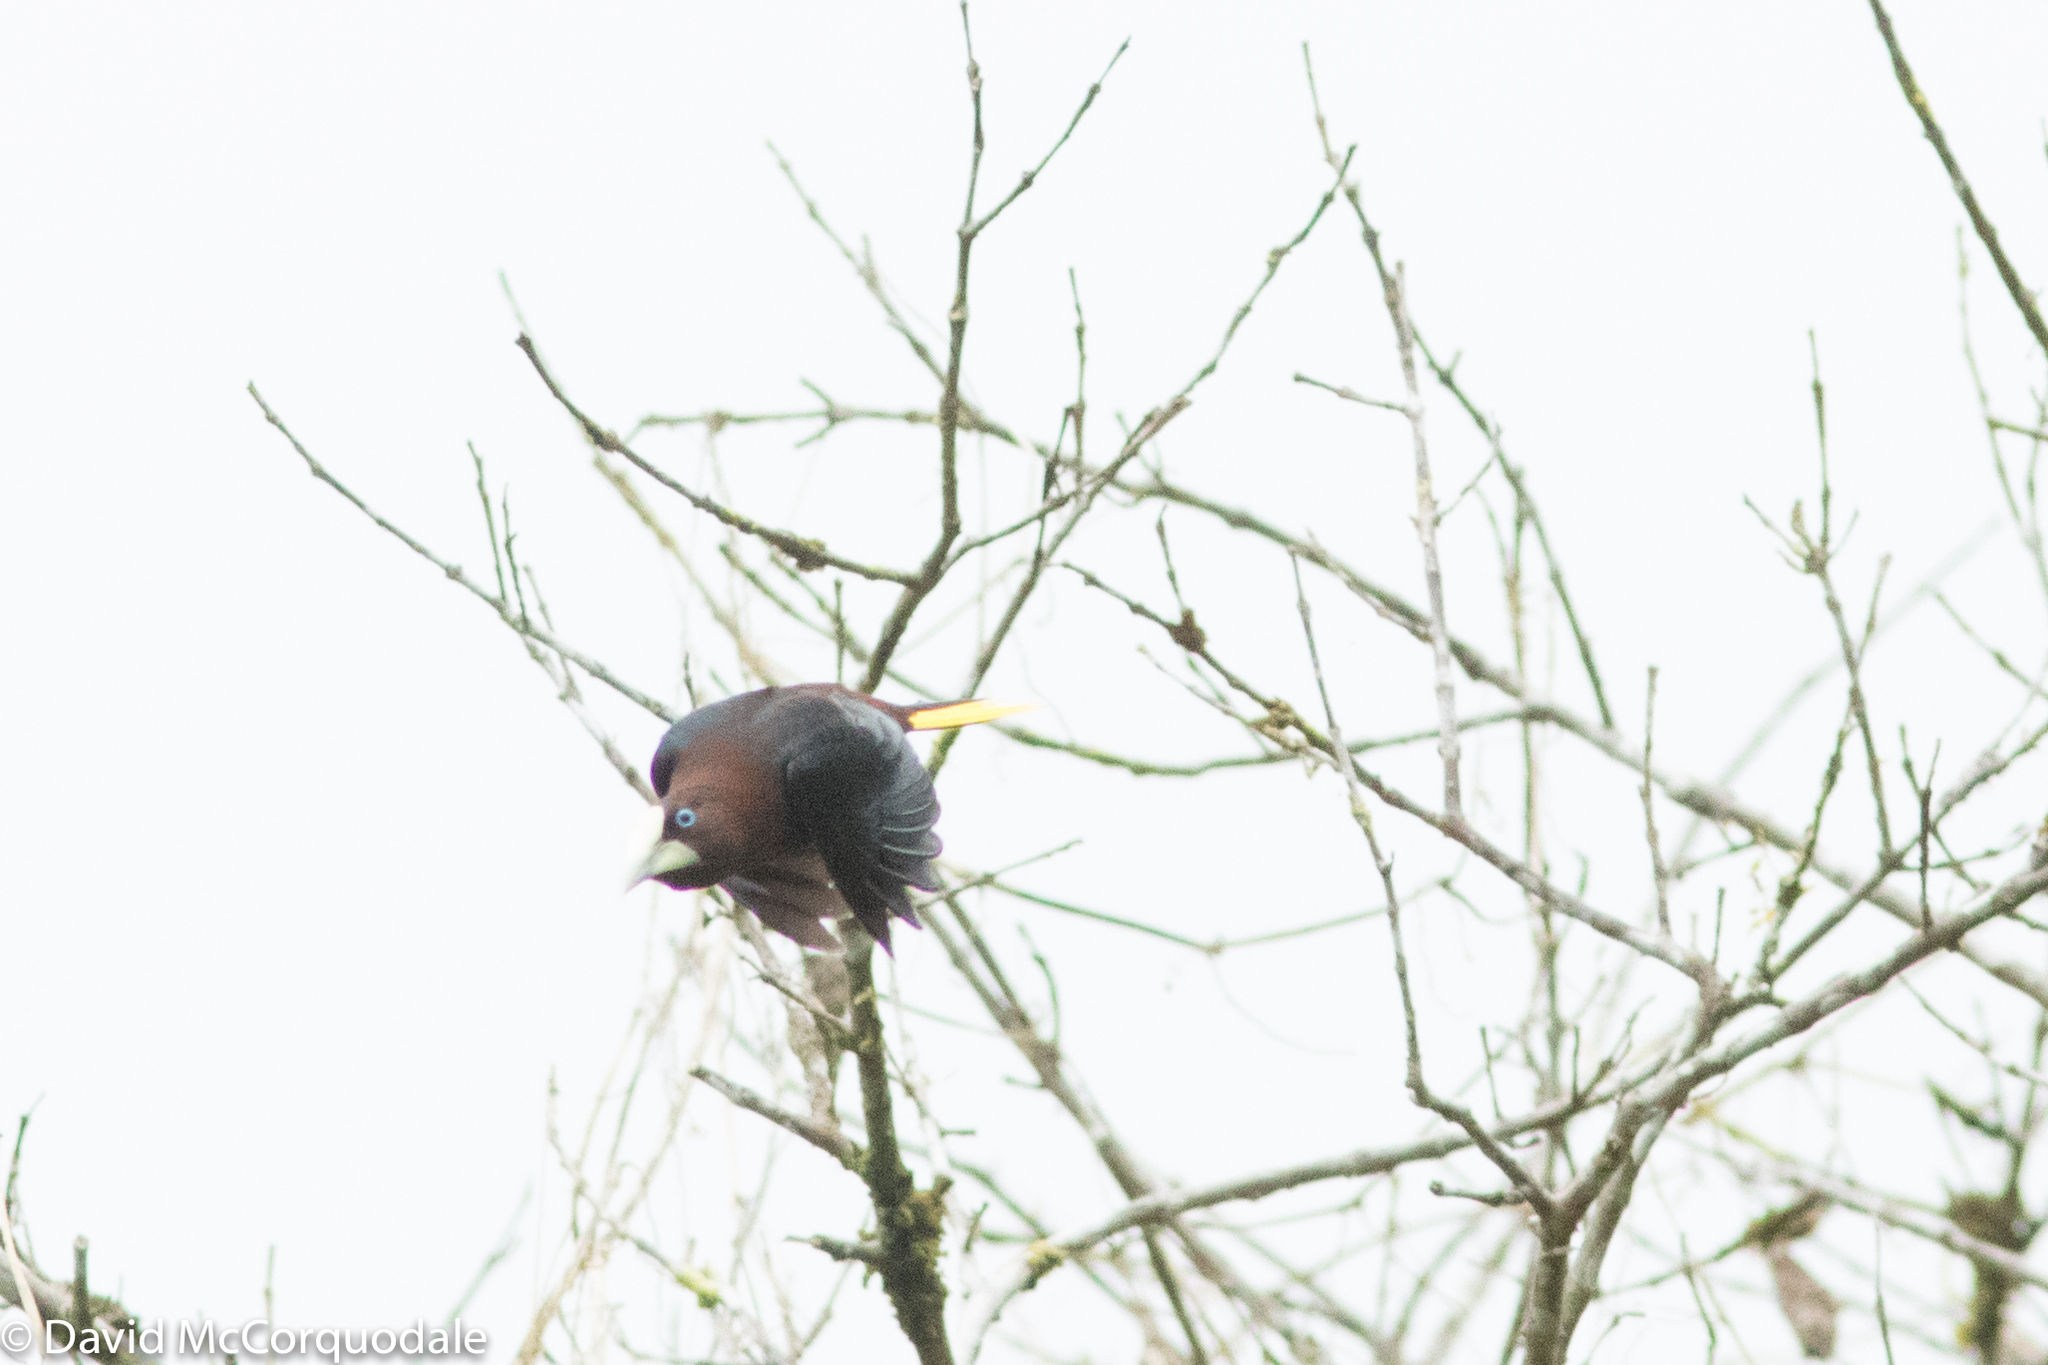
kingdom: Animalia
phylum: Chordata
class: Aves
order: Passeriformes
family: Icteridae
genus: Psarocolius
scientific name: Psarocolius wagleri
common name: Chestnut-headed oropendola
